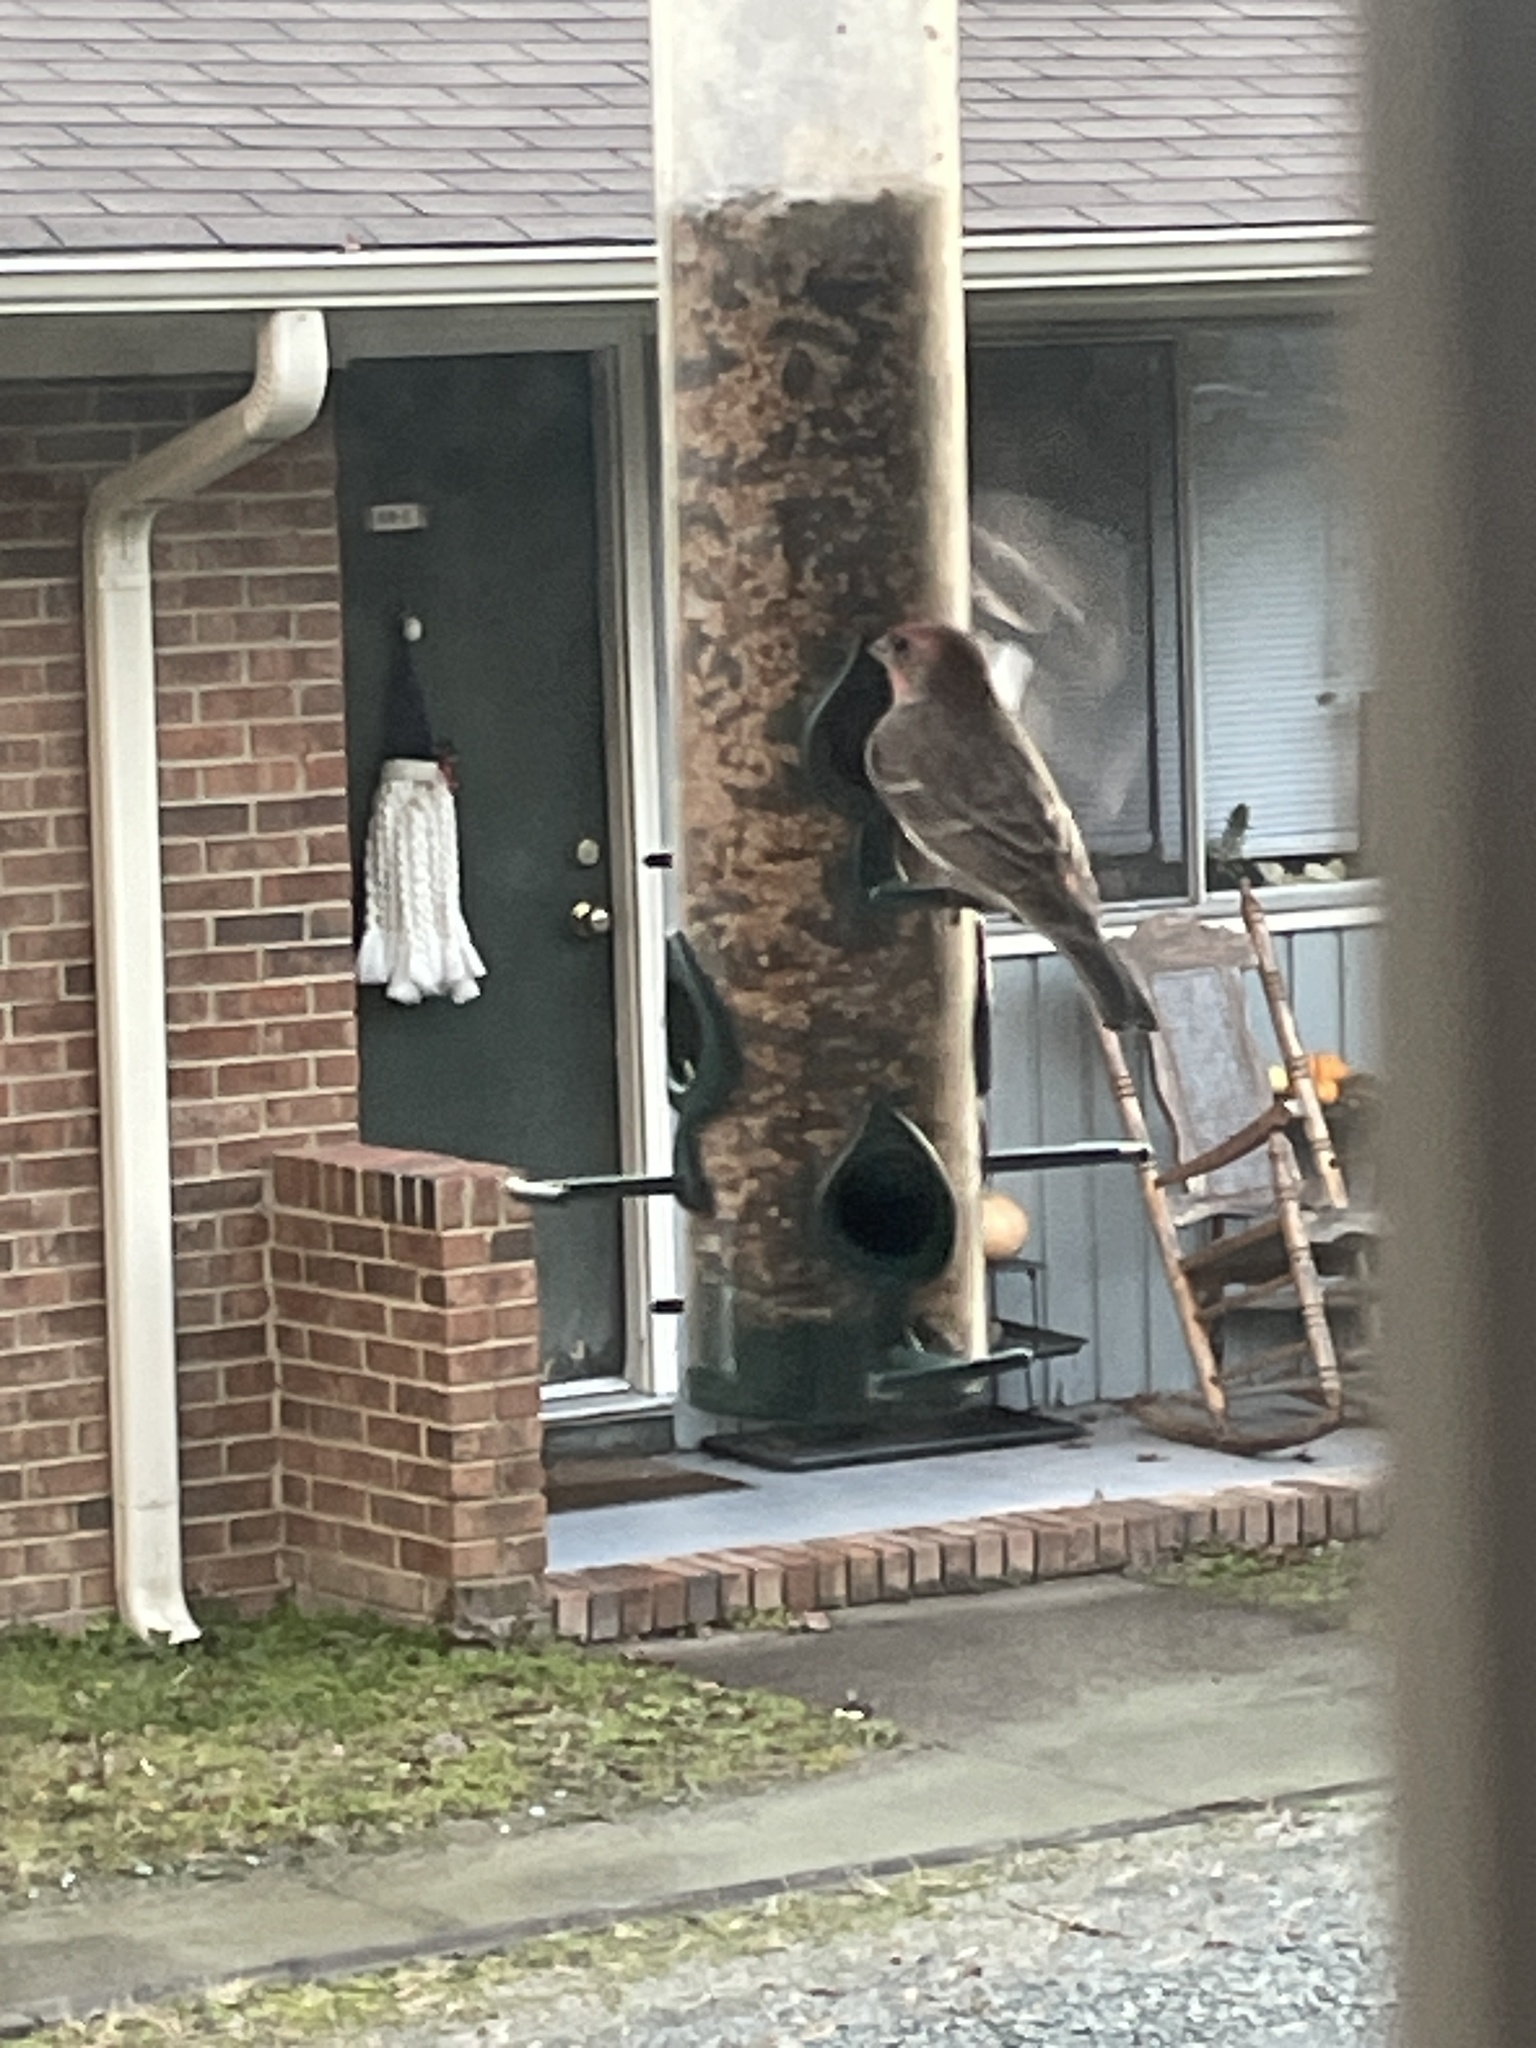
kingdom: Animalia
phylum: Chordata
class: Aves
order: Passeriformes
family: Fringillidae
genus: Haemorhous
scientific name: Haemorhous mexicanus
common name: House finch
